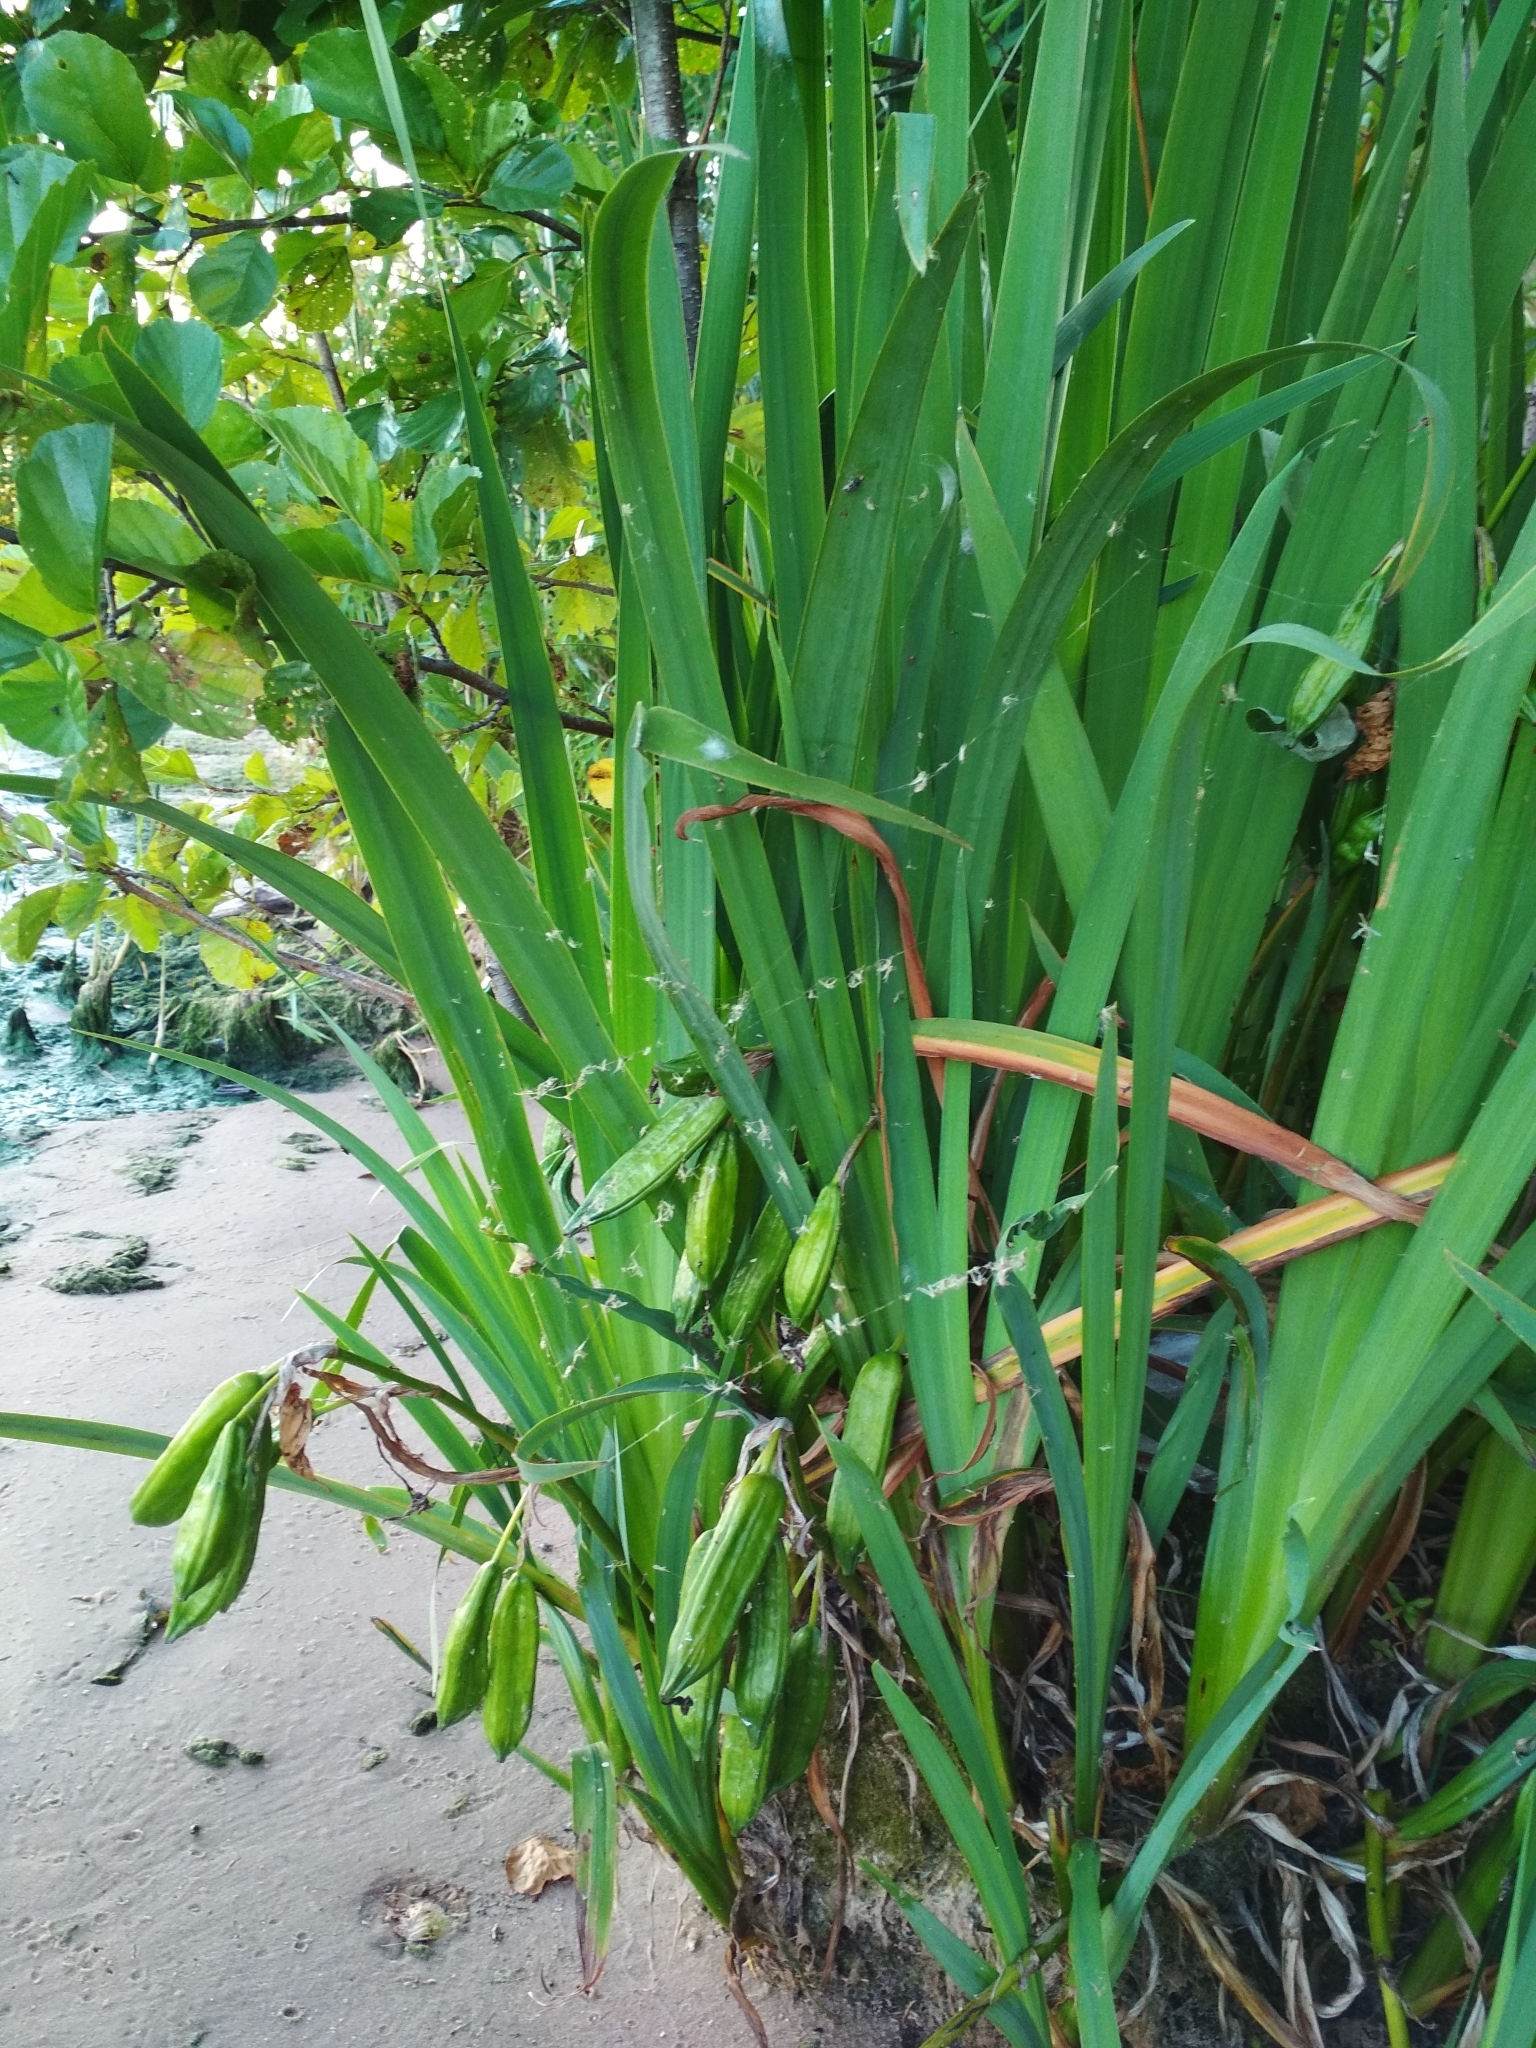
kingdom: Plantae
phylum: Tracheophyta
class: Liliopsida
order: Asparagales
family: Iridaceae
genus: Iris
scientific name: Iris pseudacorus
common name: Yellow flag
